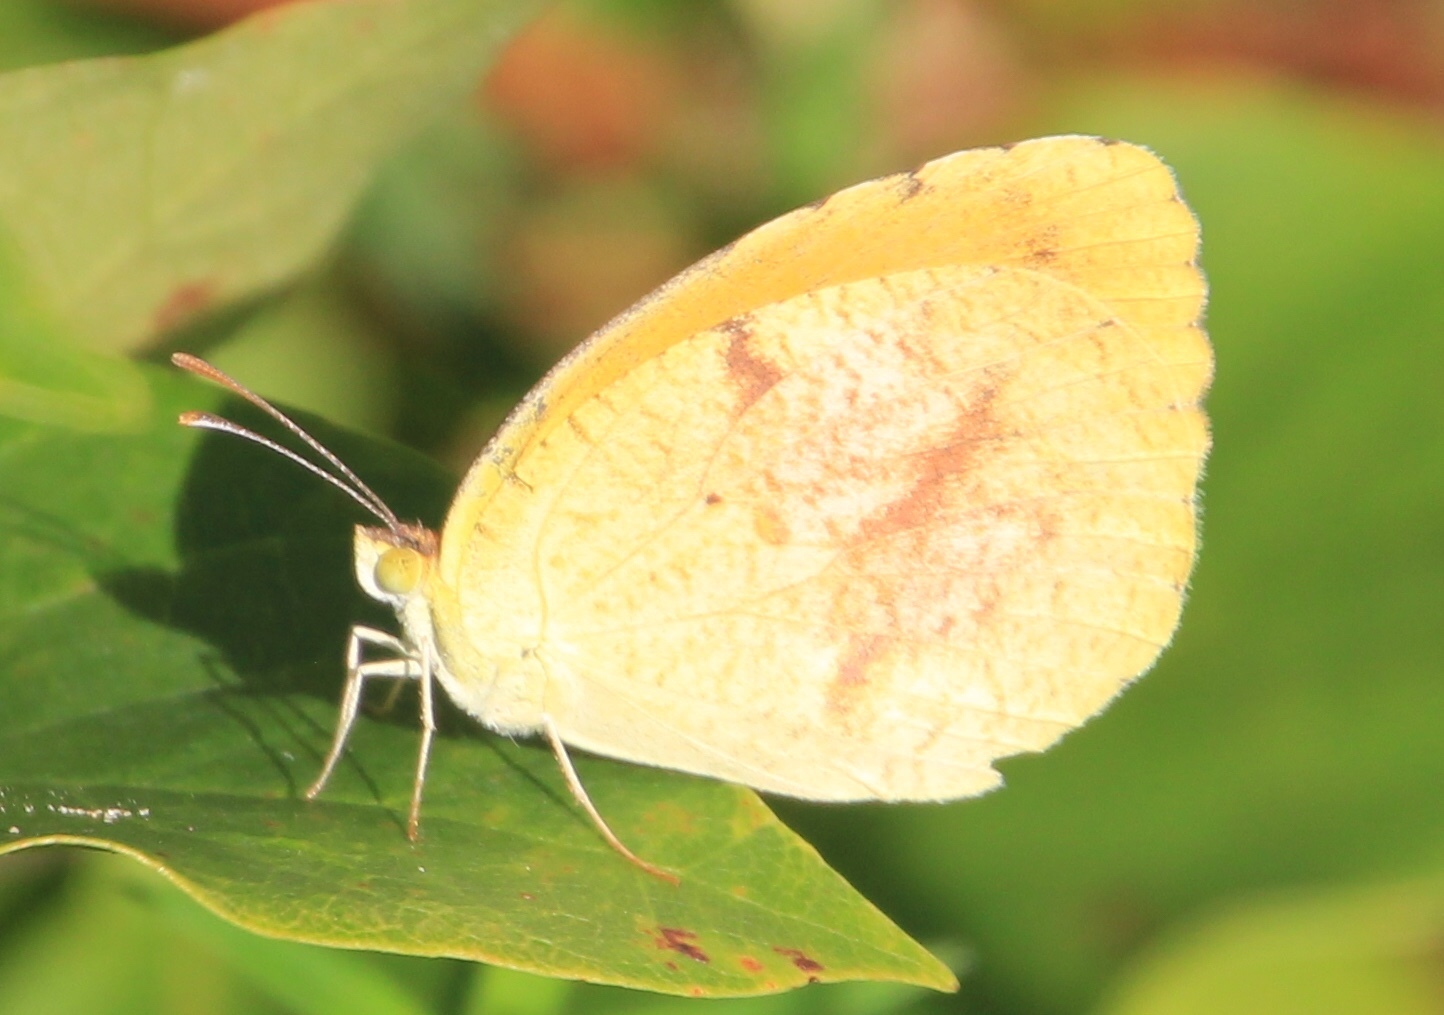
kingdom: Animalia
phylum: Arthropoda
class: Insecta
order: Lepidoptera
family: Pieridae
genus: Abaeis
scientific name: Abaeis nicippe
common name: Sleepy orange
